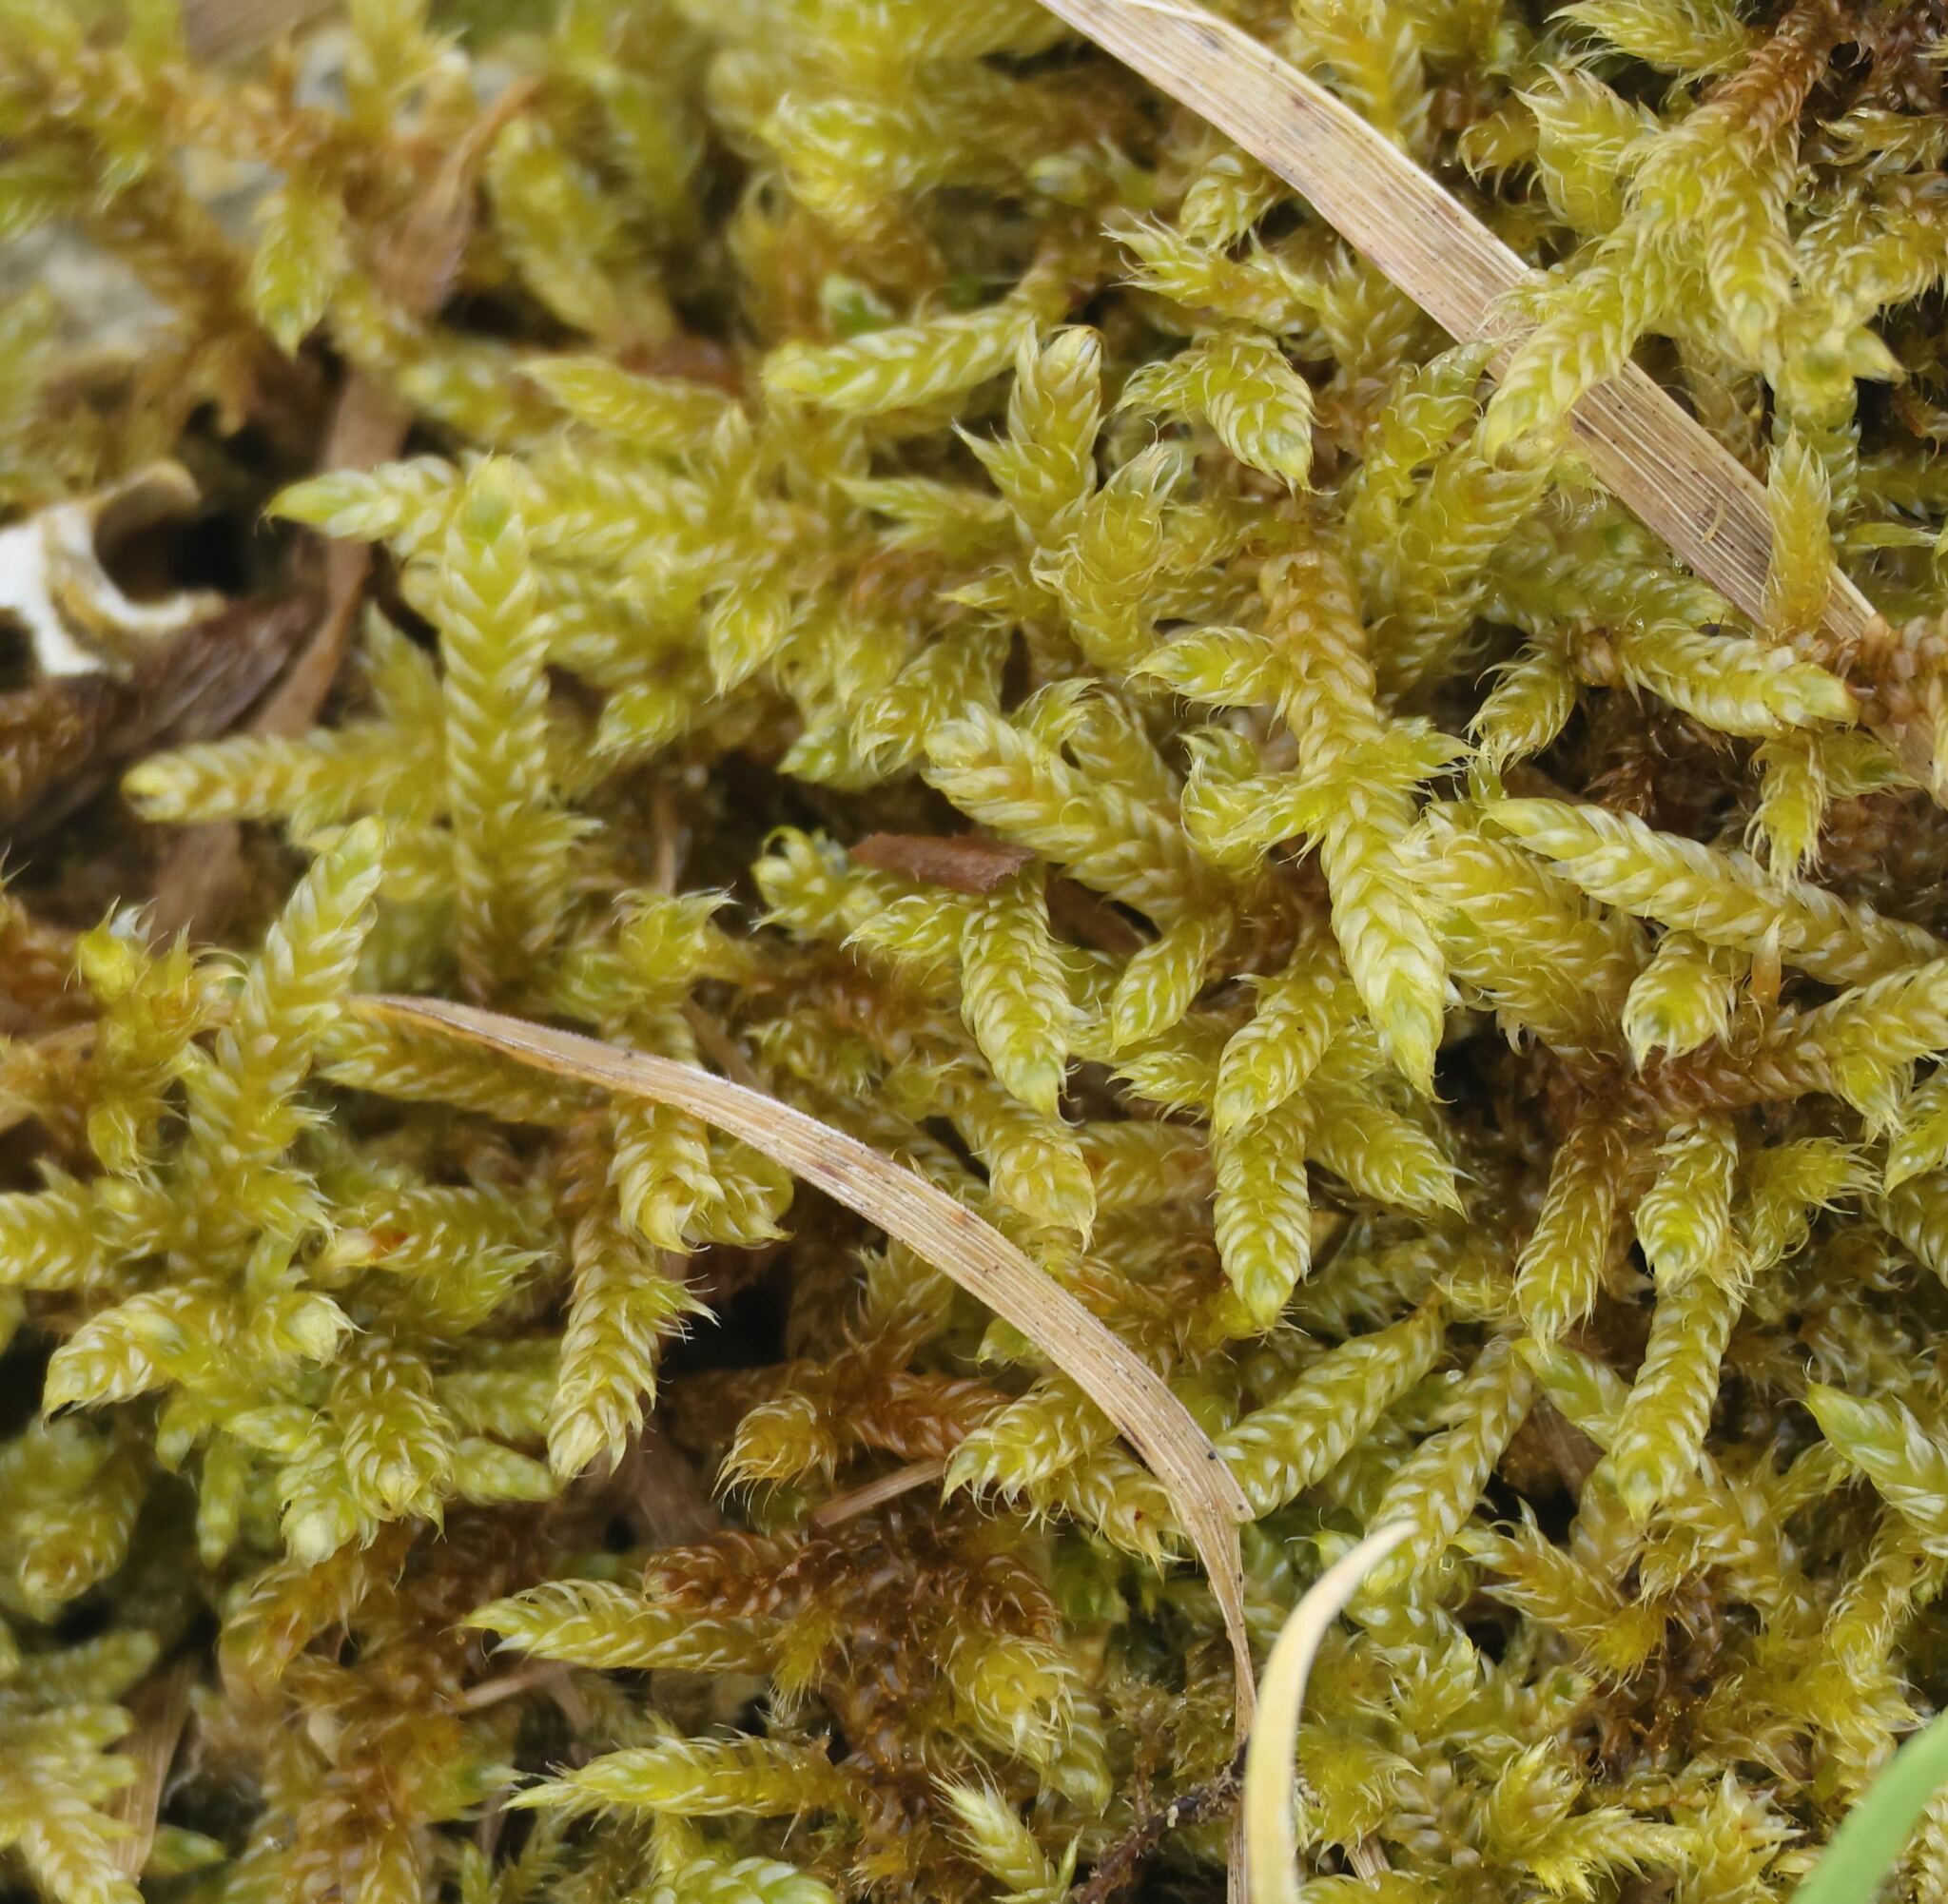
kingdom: Plantae
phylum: Bryophyta
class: Bryopsida
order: Hypnales
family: Hypnaceae
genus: Hypnum
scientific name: Hypnum cupressiforme
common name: Cypress-leaved plait-moss
